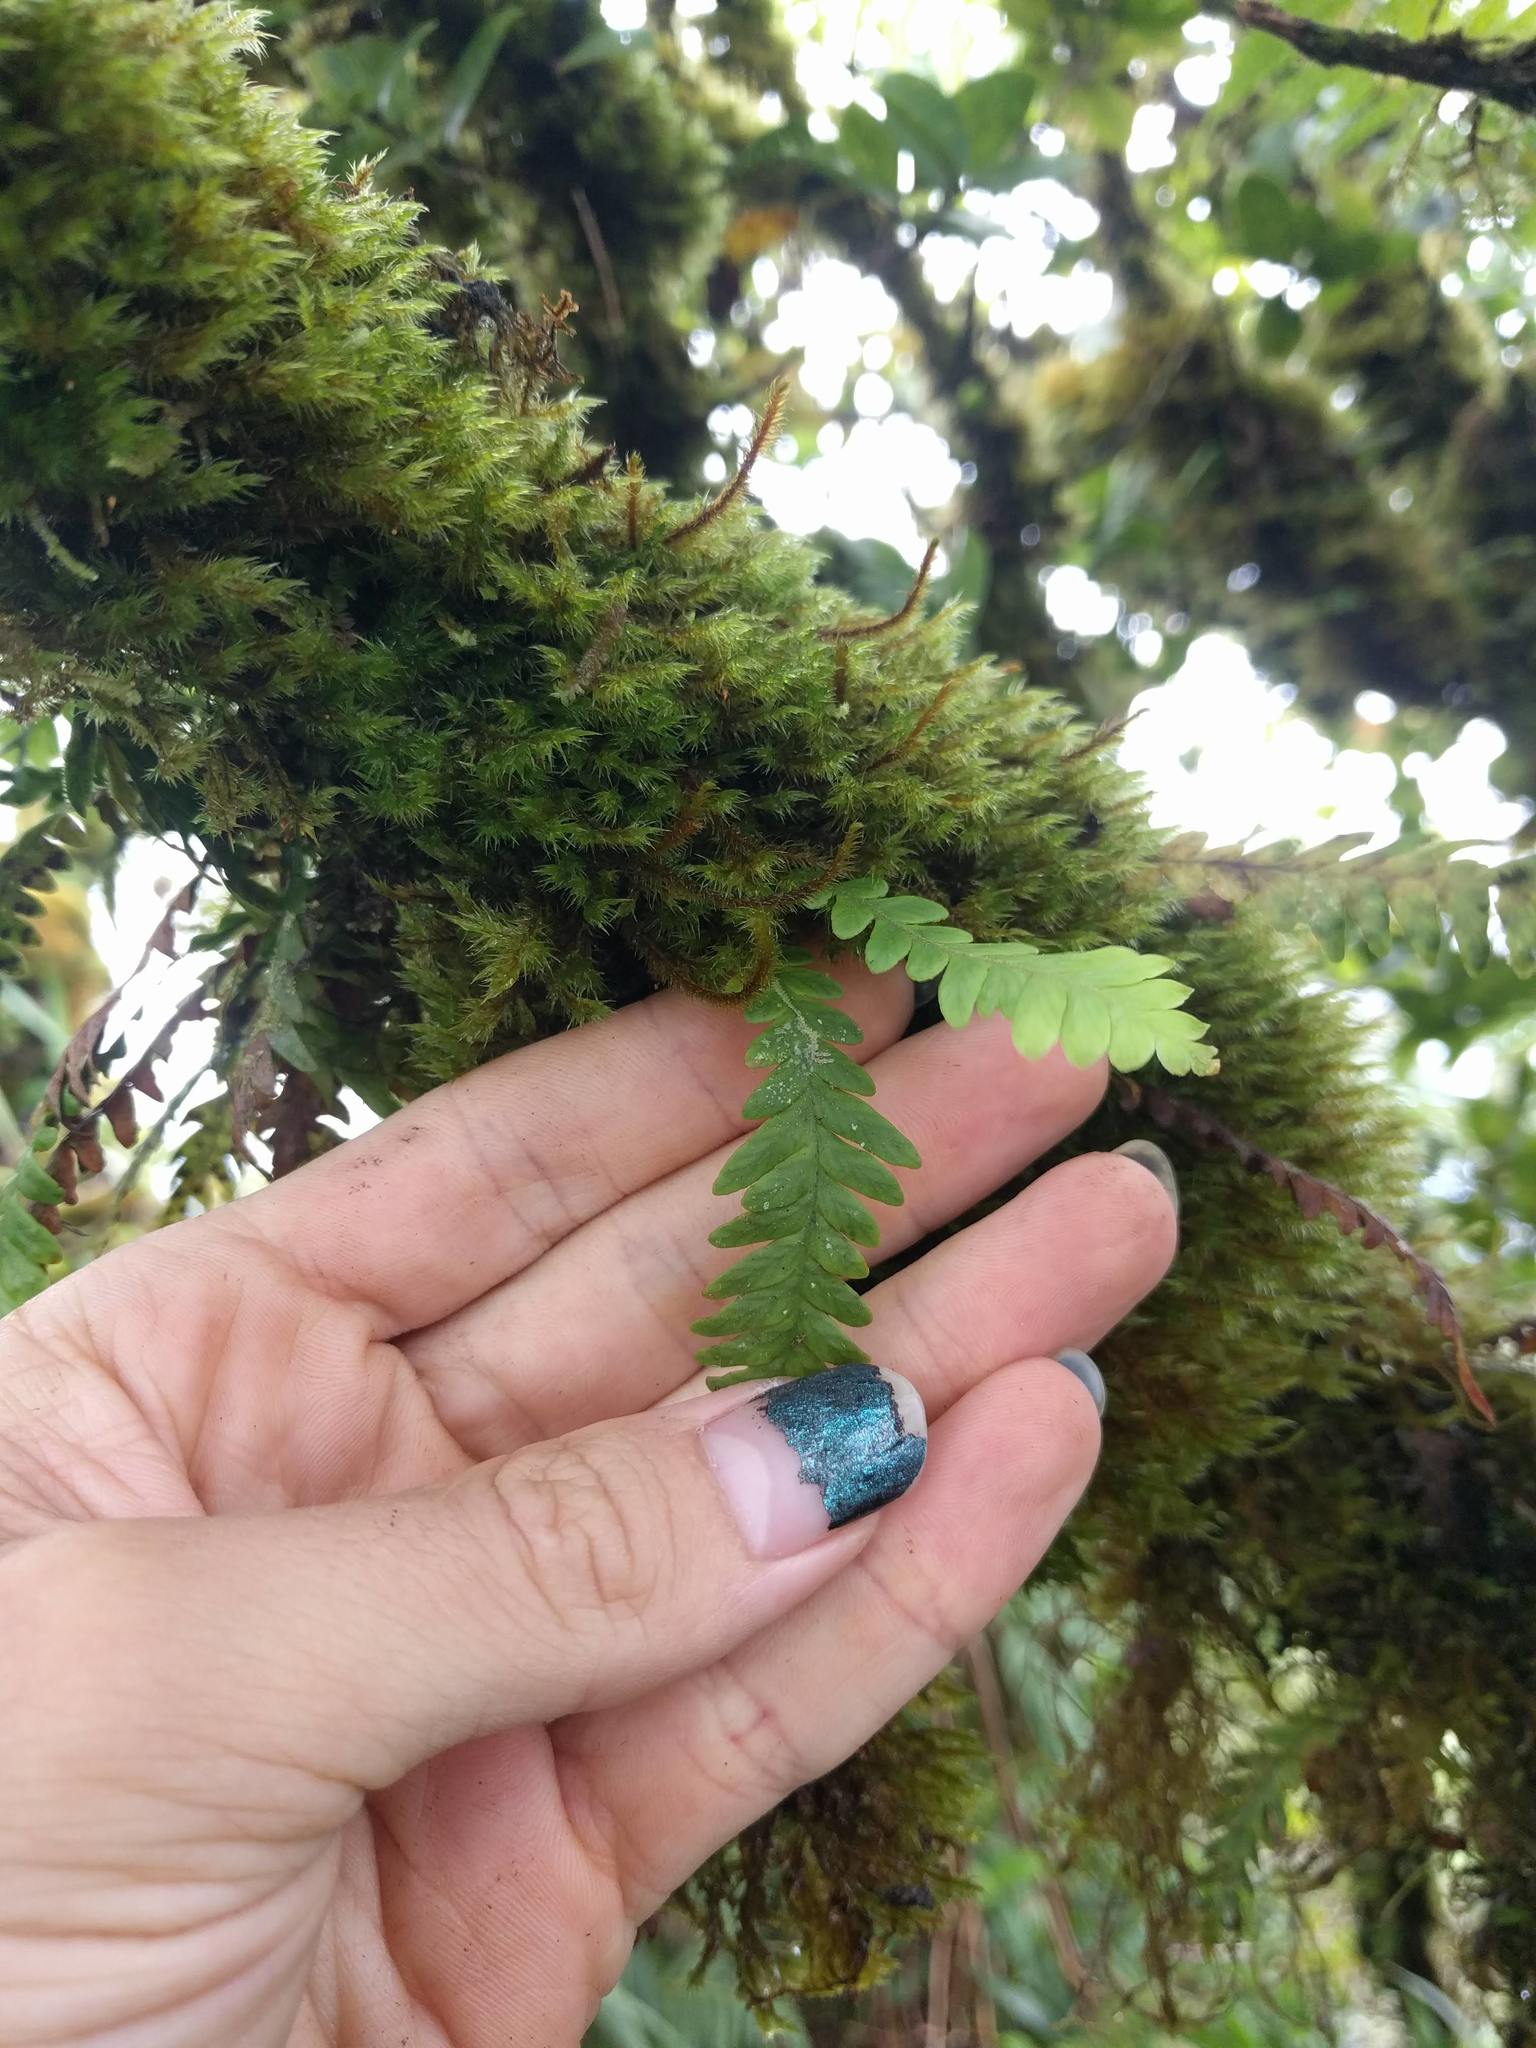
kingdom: Plantae
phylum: Tracheophyta
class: Polypodiopsida
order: Polypodiales
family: Polypodiaceae
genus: Adenophorus
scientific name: Adenophorus pinnatifidus
